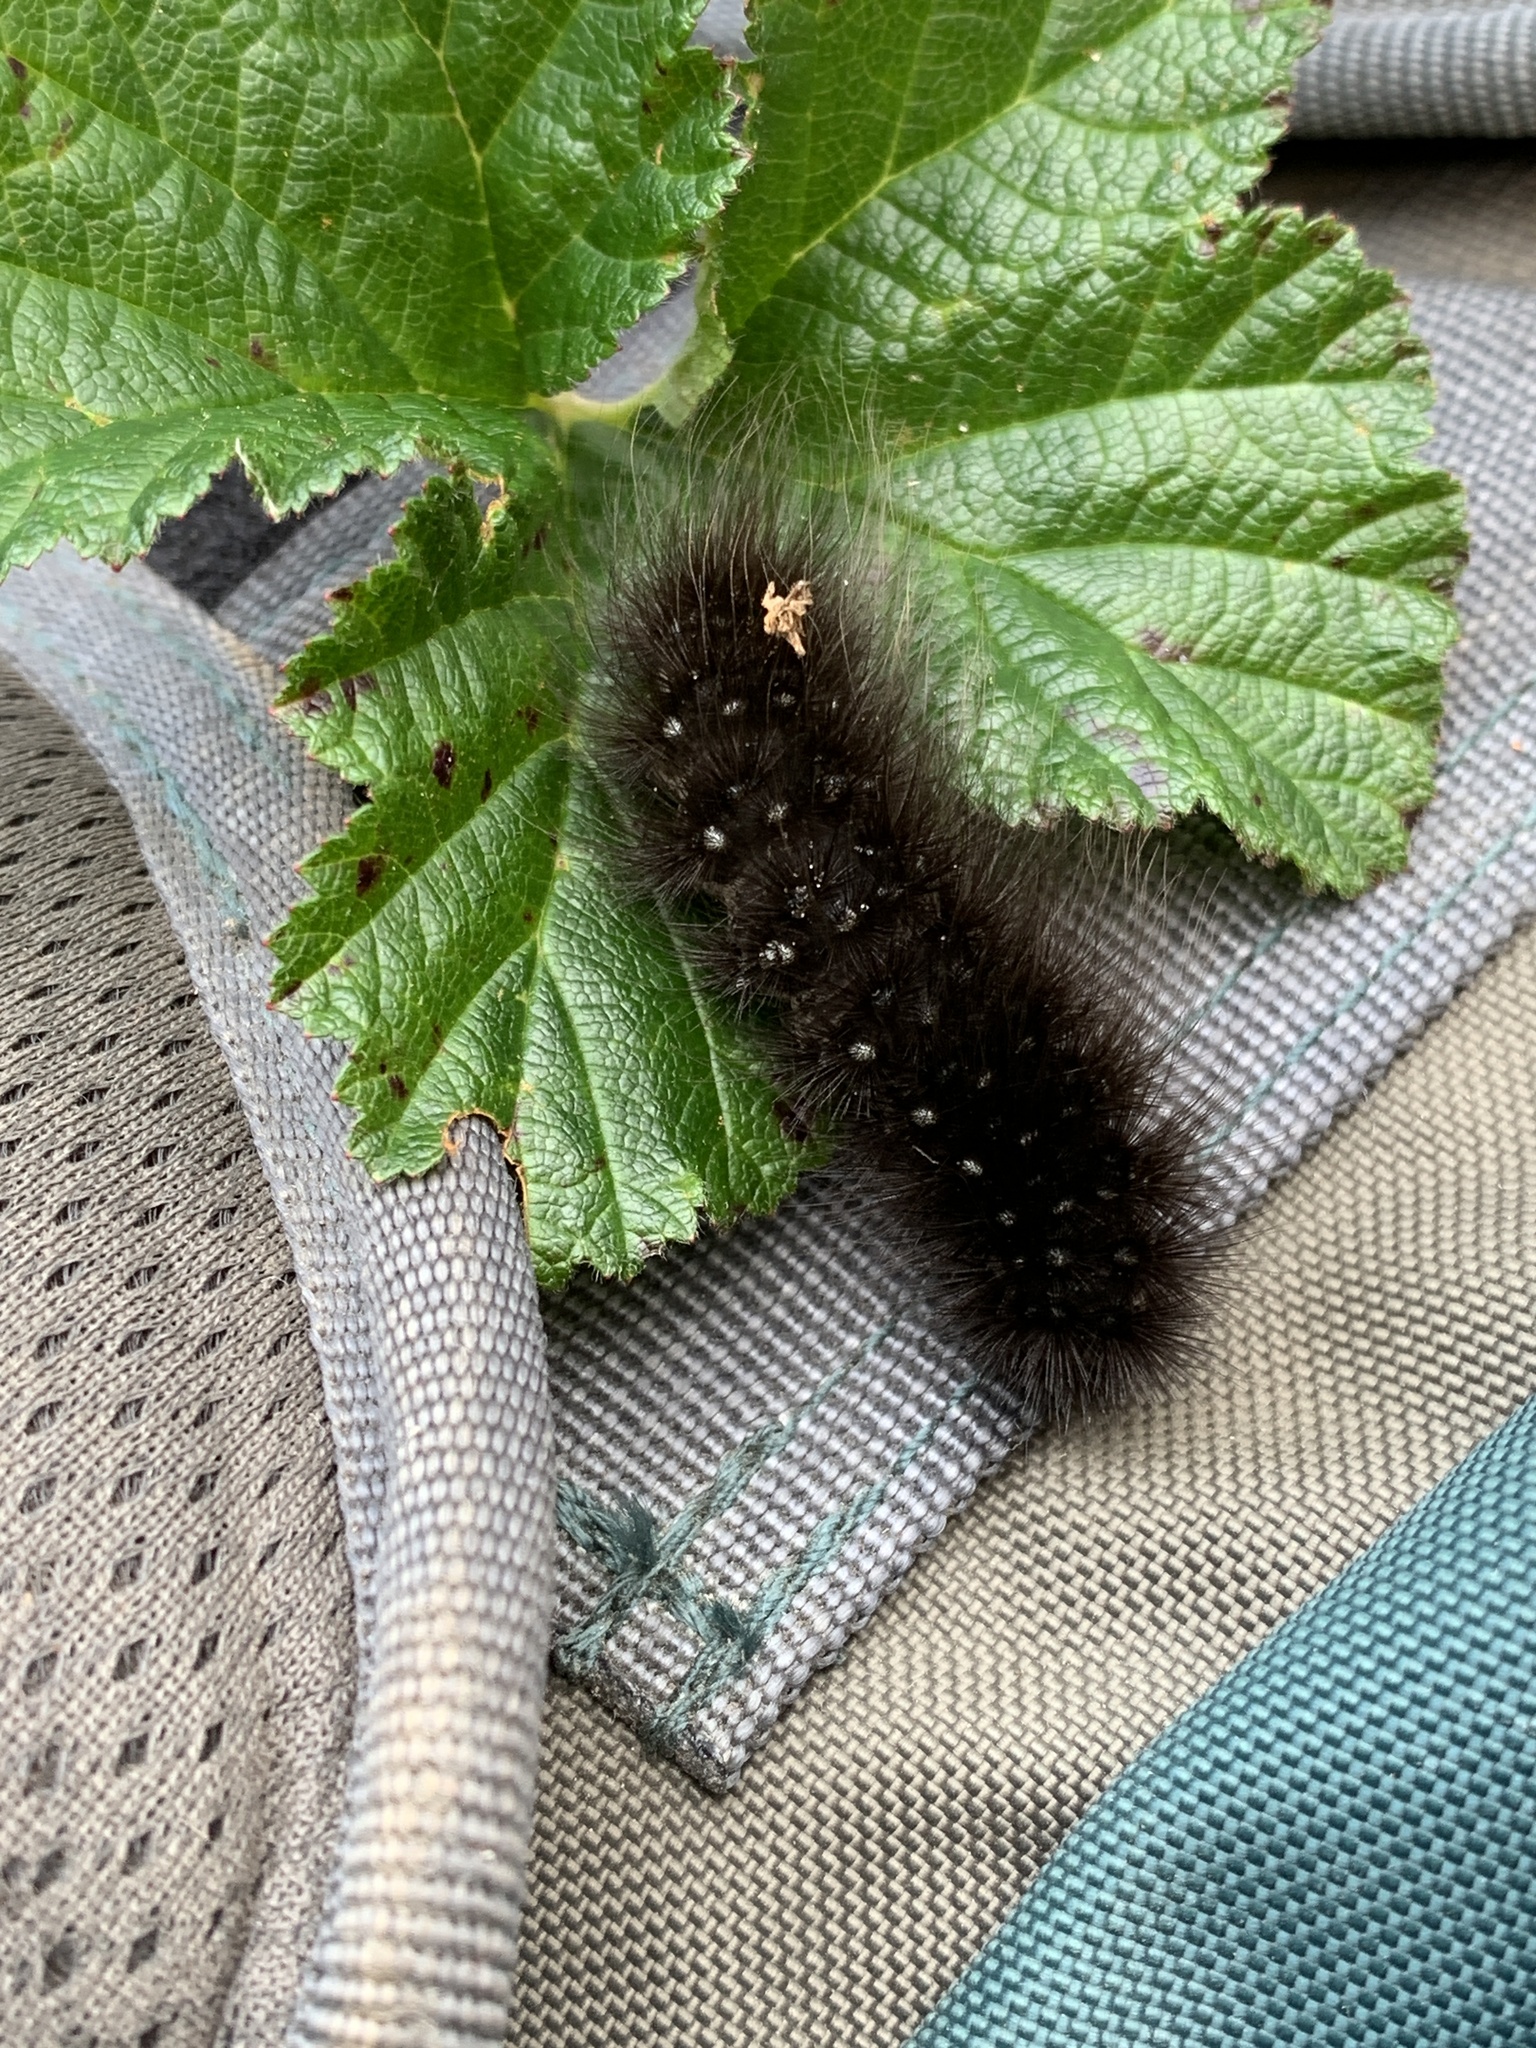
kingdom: Animalia
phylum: Arthropoda
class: Insecta
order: Lepidoptera
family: Erebidae
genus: Arctia
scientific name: Arctia parthenos
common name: St. lawrence tiger moth
